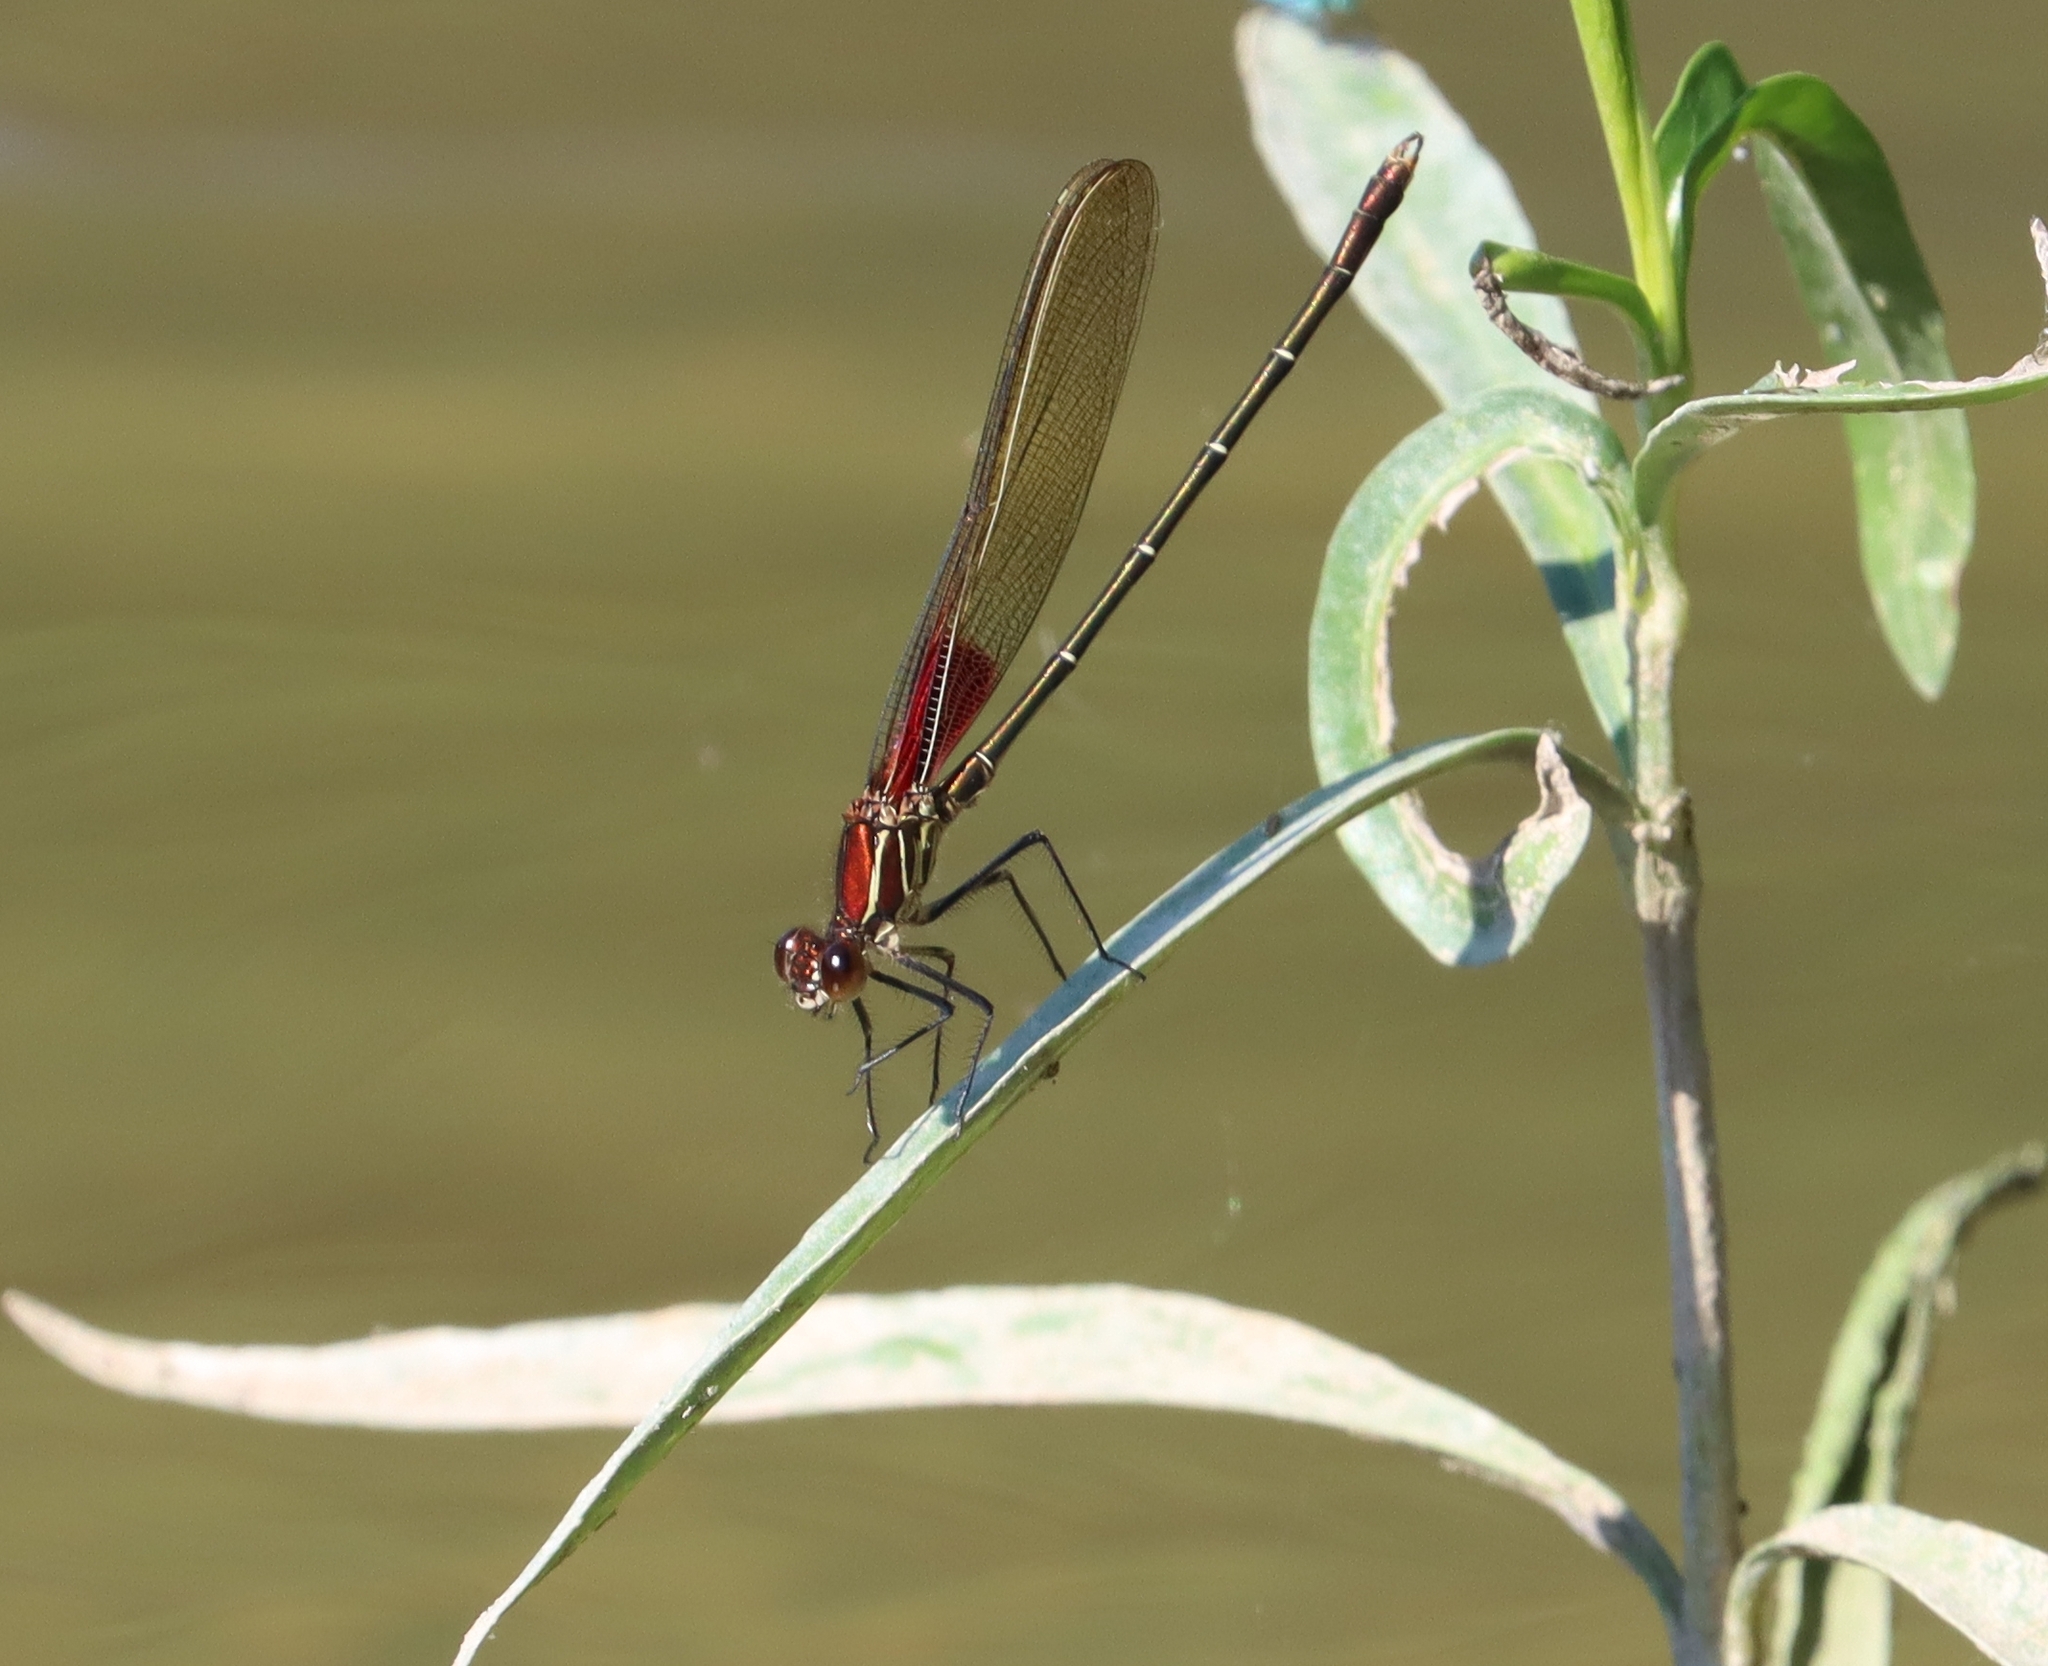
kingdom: Animalia
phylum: Arthropoda
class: Insecta
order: Odonata
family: Calopterygidae
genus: Hetaerina
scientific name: Hetaerina americana
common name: American rubyspot
